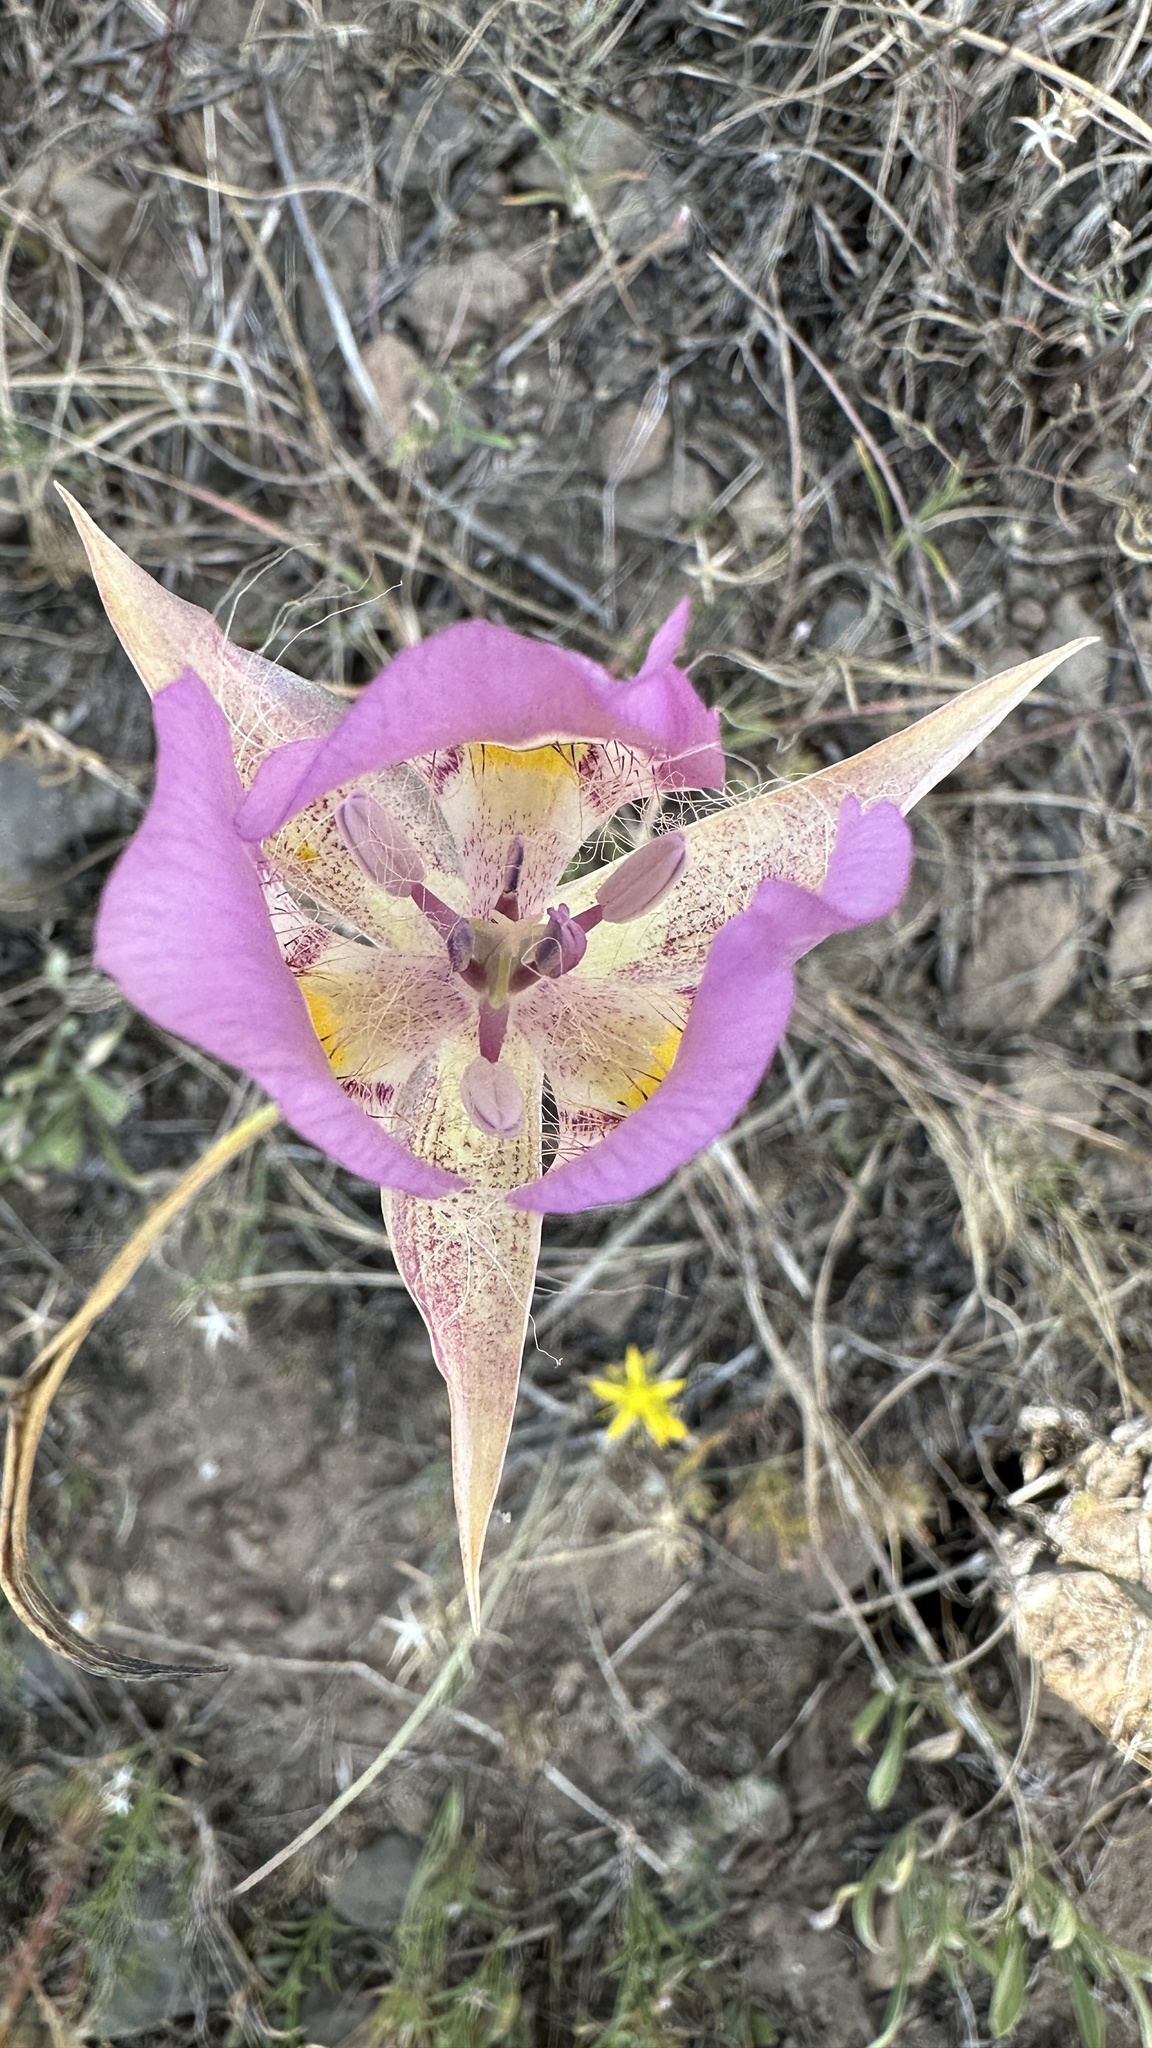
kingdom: Plantae
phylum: Tracheophyta
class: Liliopsida
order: Liliales
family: Liliaceae
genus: Calochortus
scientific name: Calochortus nitidus
